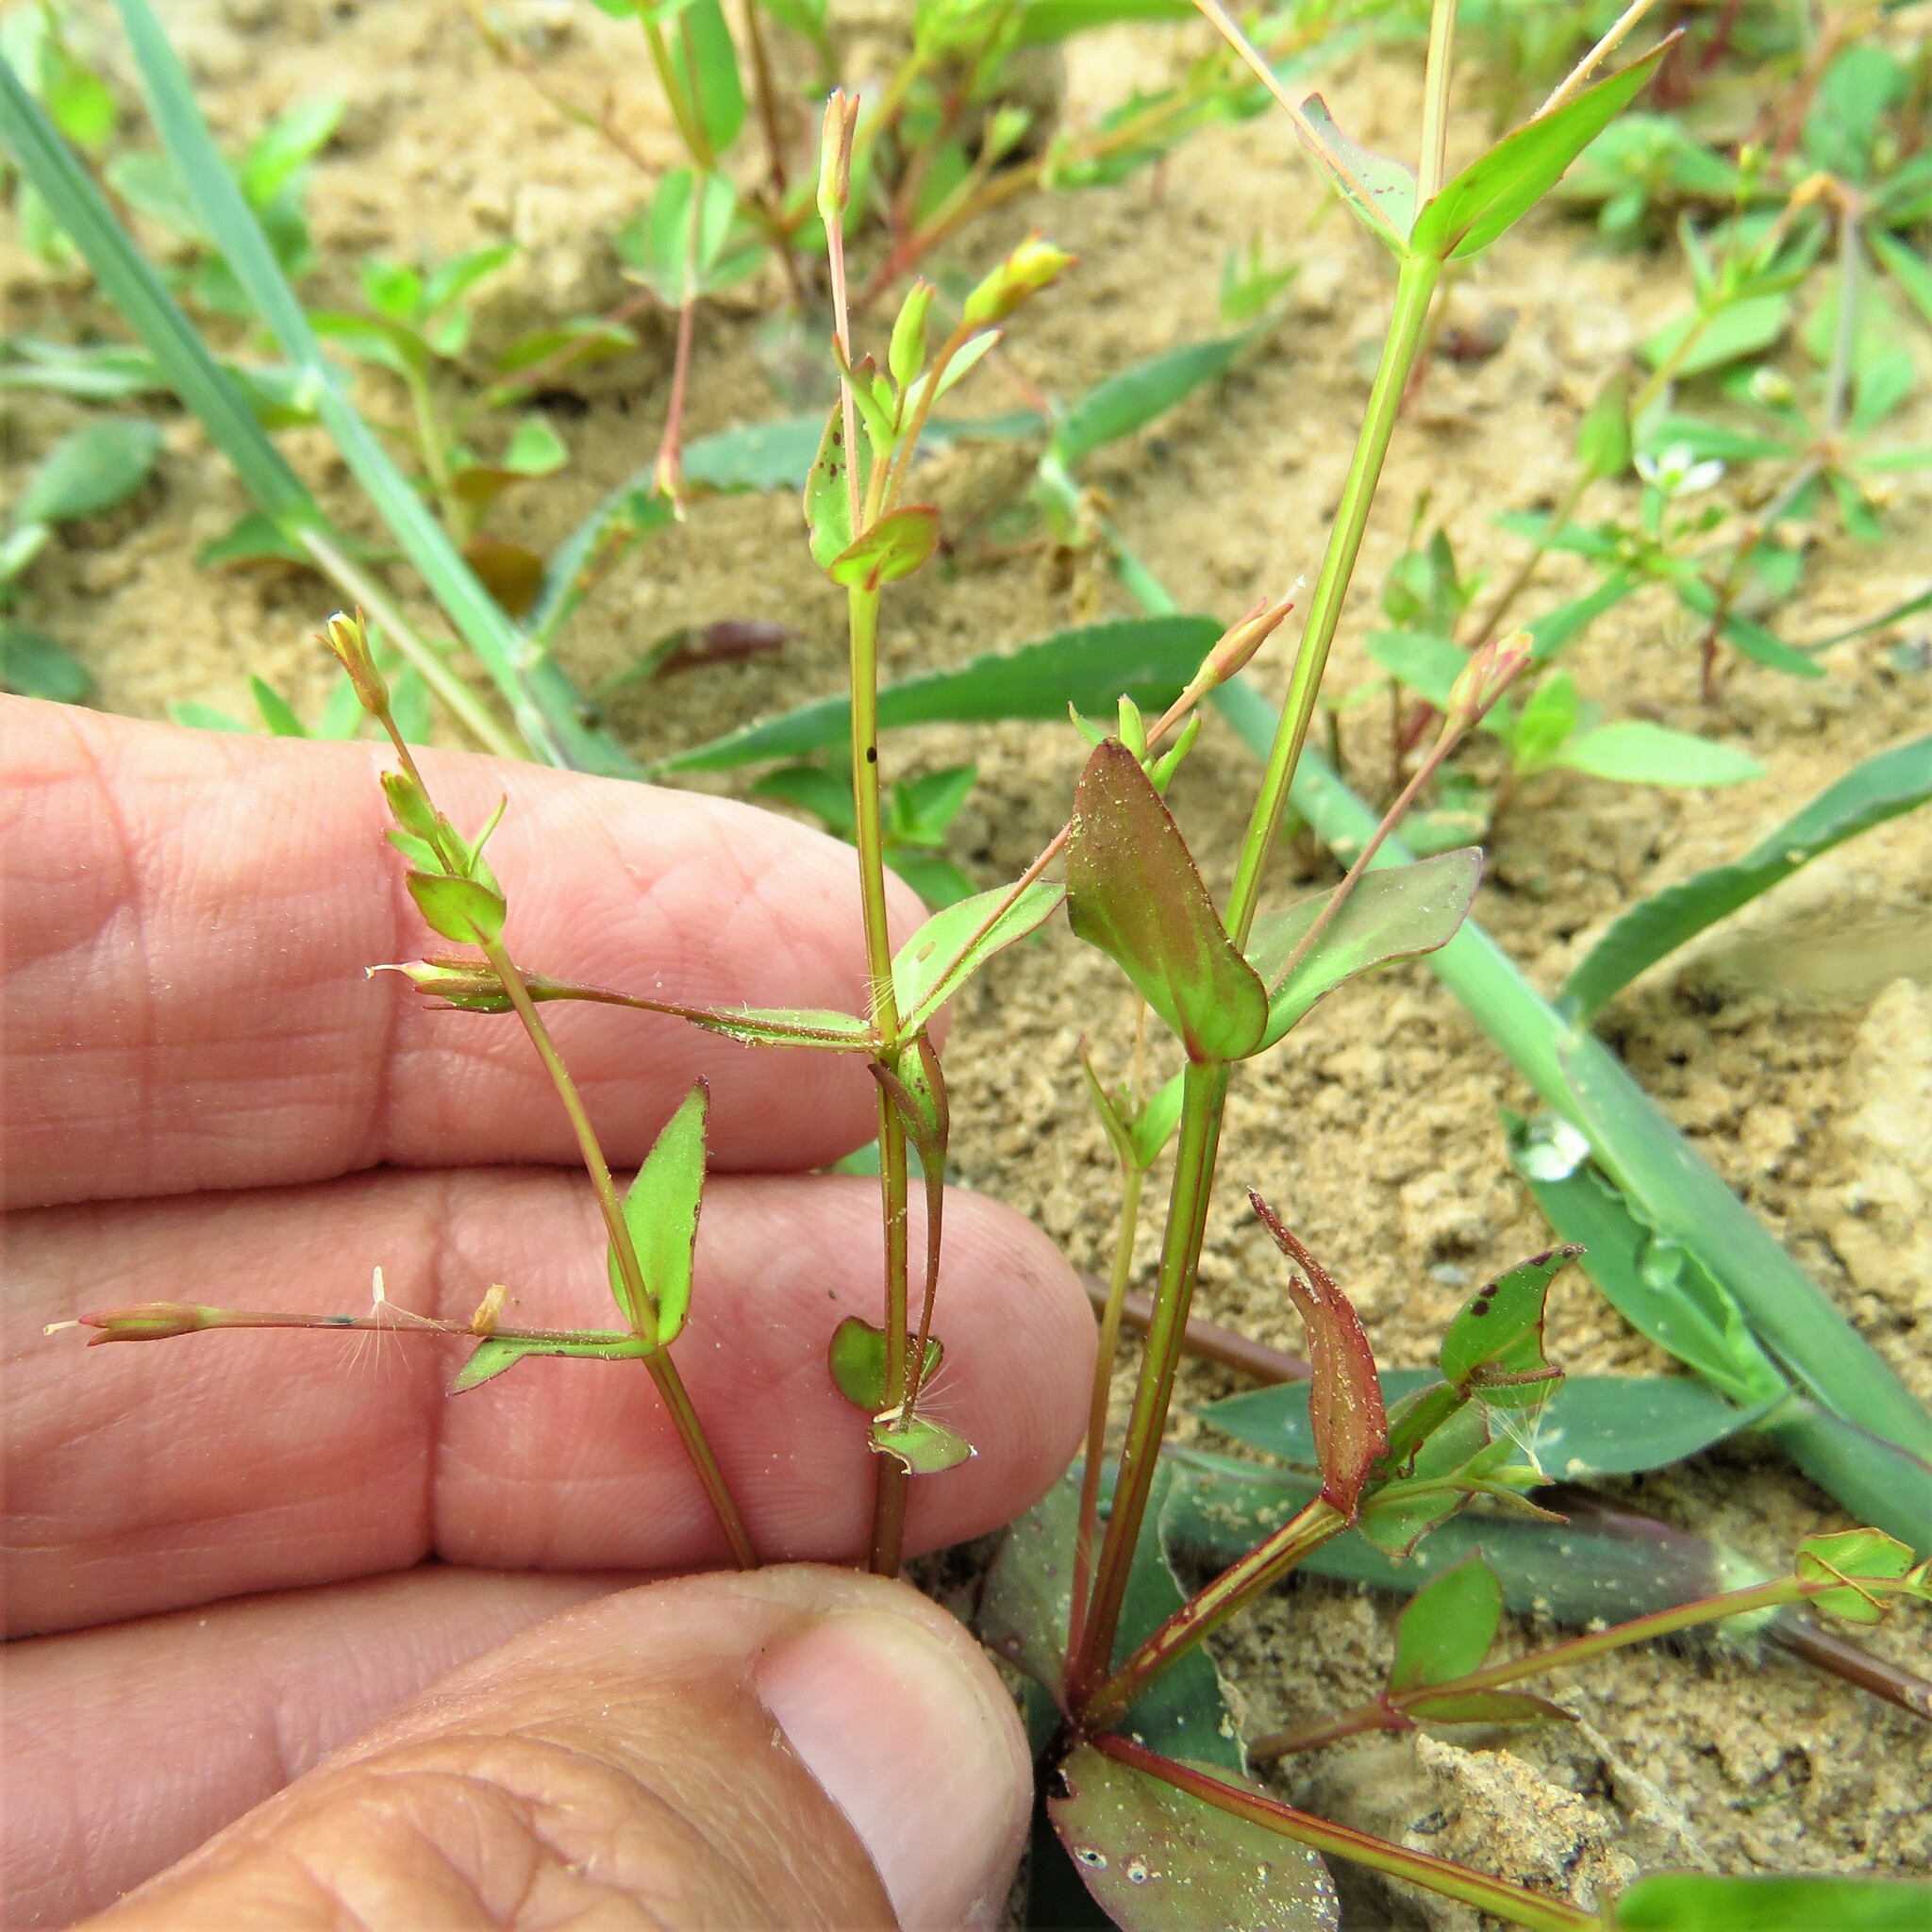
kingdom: Plantae
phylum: Tracheophyta
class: Magnoliopsida
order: Lamiales
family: Linderniaceae
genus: Lindernia
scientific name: Lindernia dubia
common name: Annual false pimpernel
